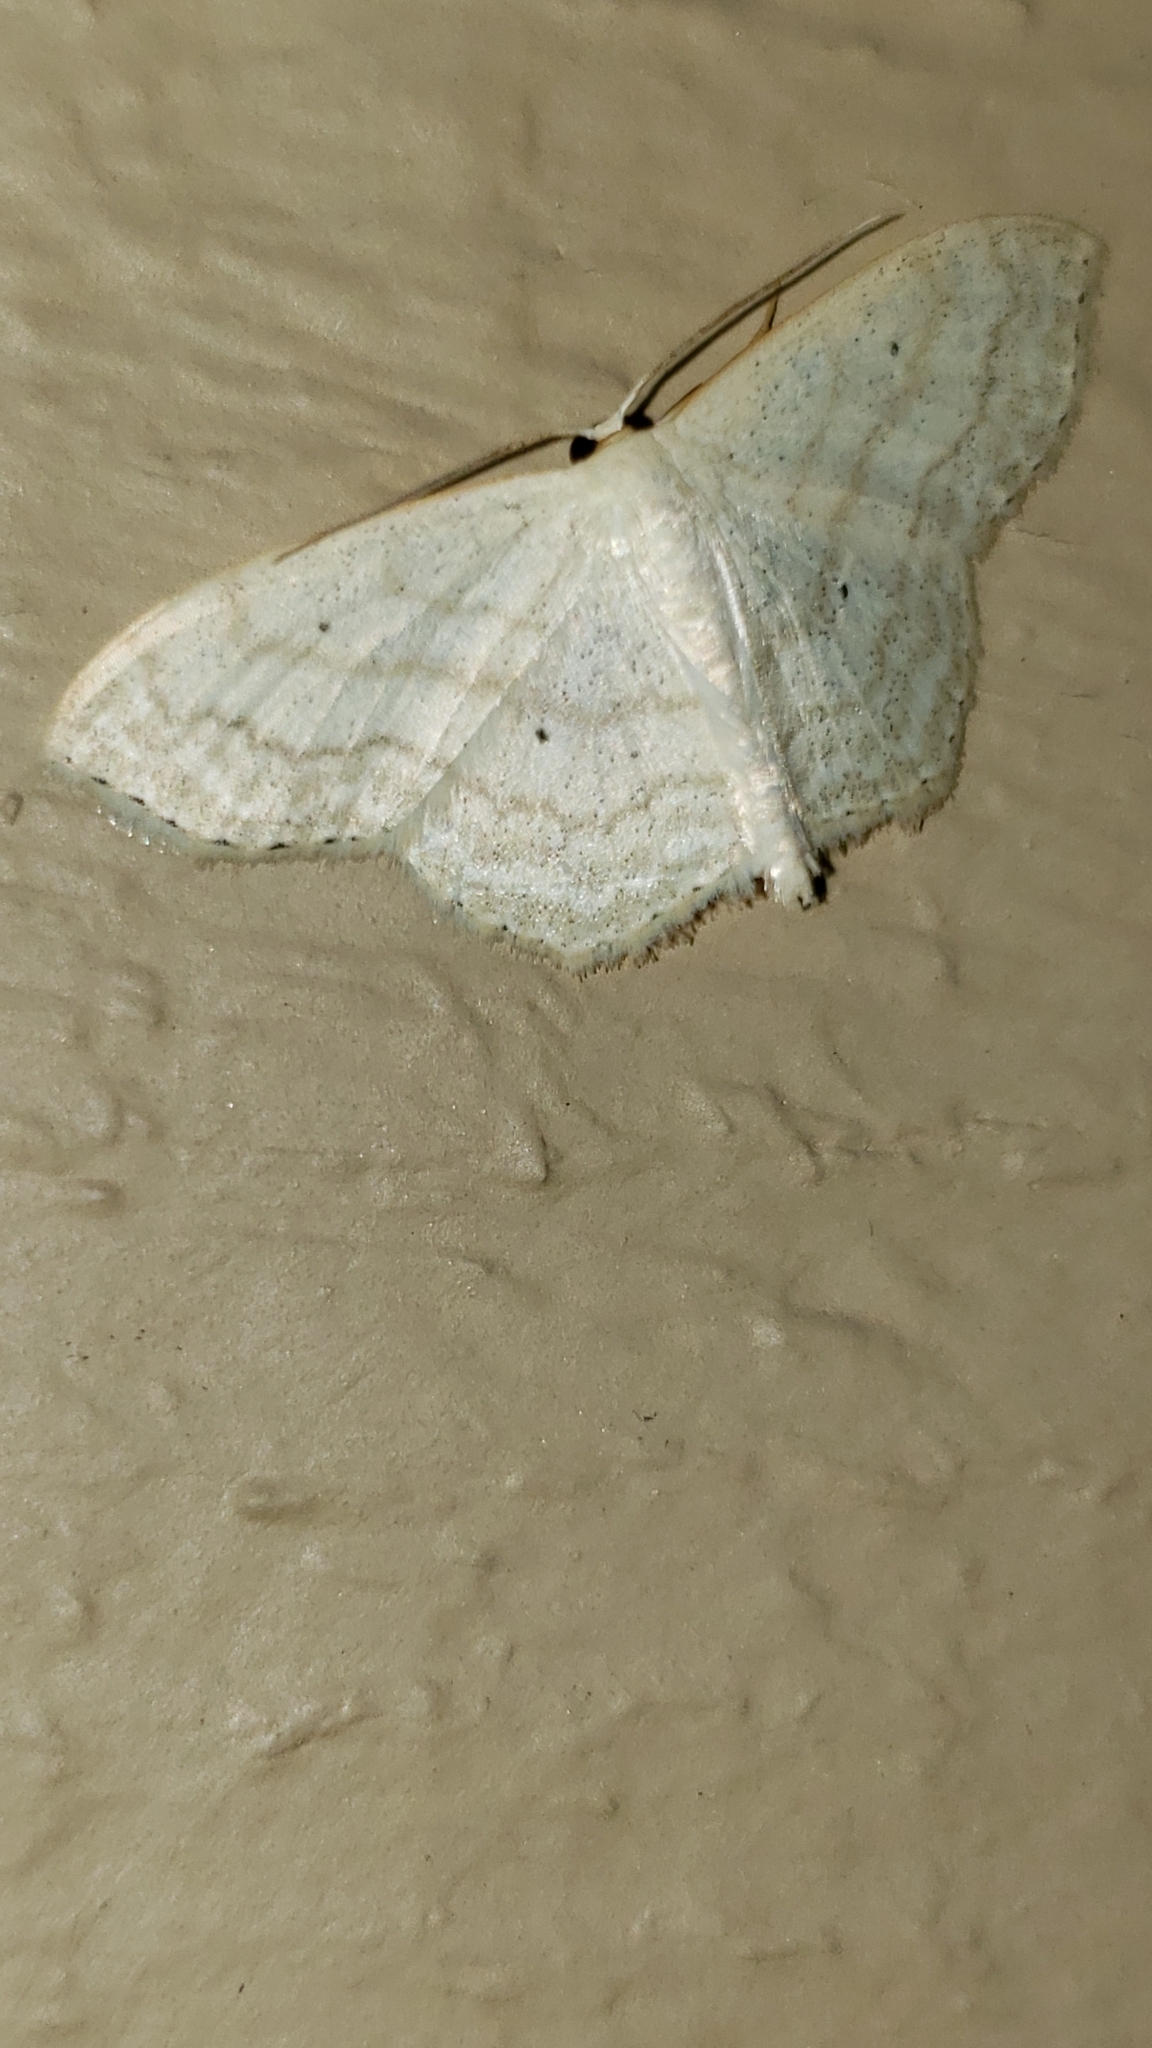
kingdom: Animalia
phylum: Arthropoda
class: Insecta
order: Lepidoptera
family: Geometridae
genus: Scopula
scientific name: Scopula limboundata
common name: Large lace border
